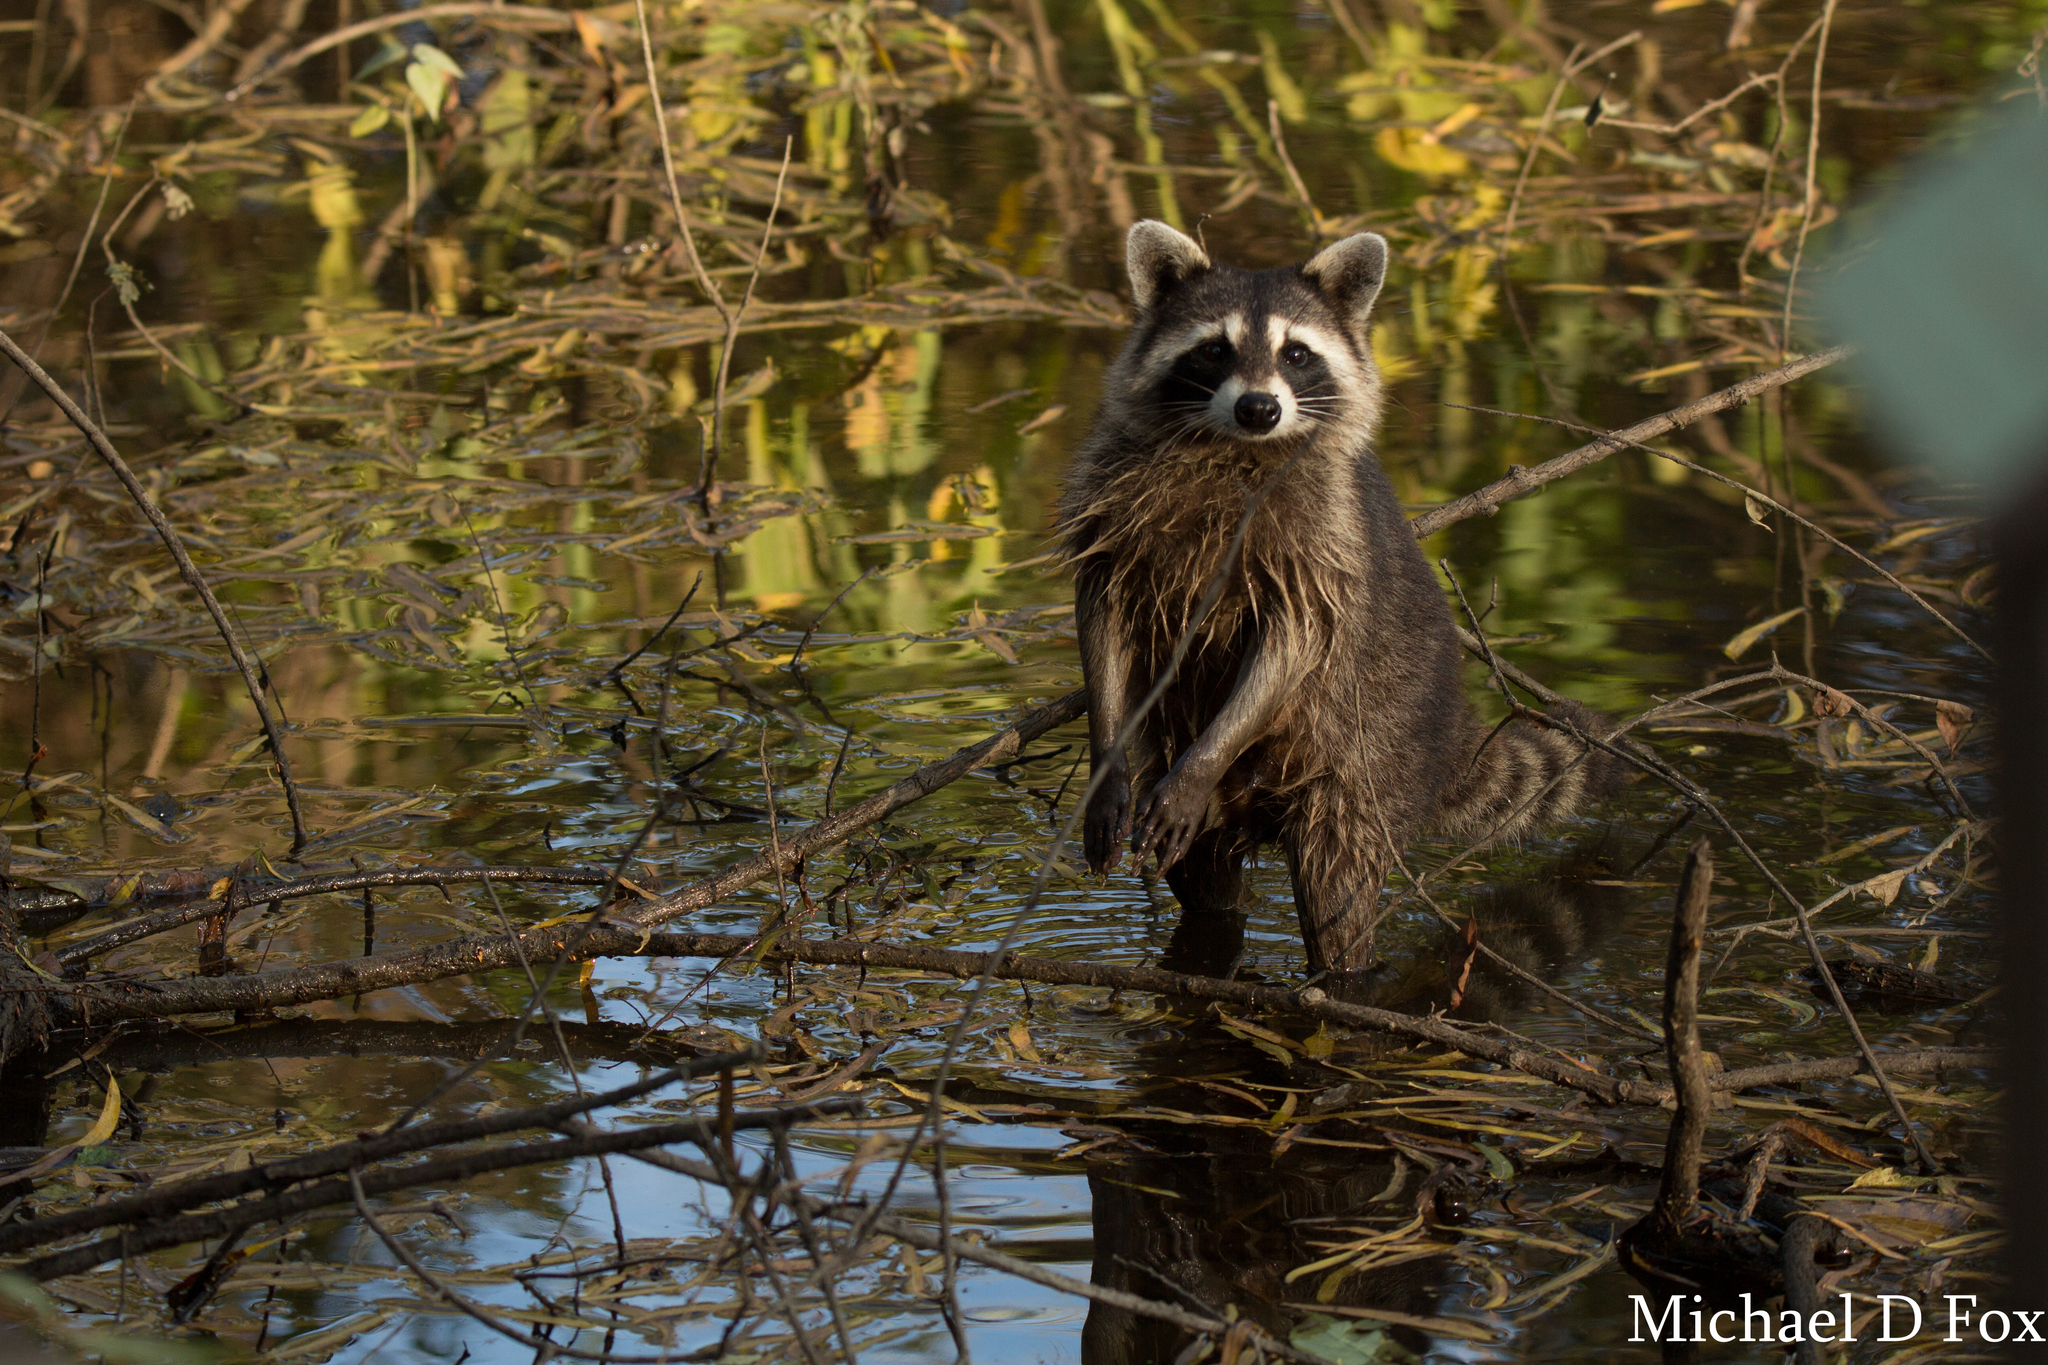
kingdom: Animalia
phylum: Chordata
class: Mammalia
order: Carnivora
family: Procyonidae
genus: Procyon
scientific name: Procyon lotor
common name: Raccoon
